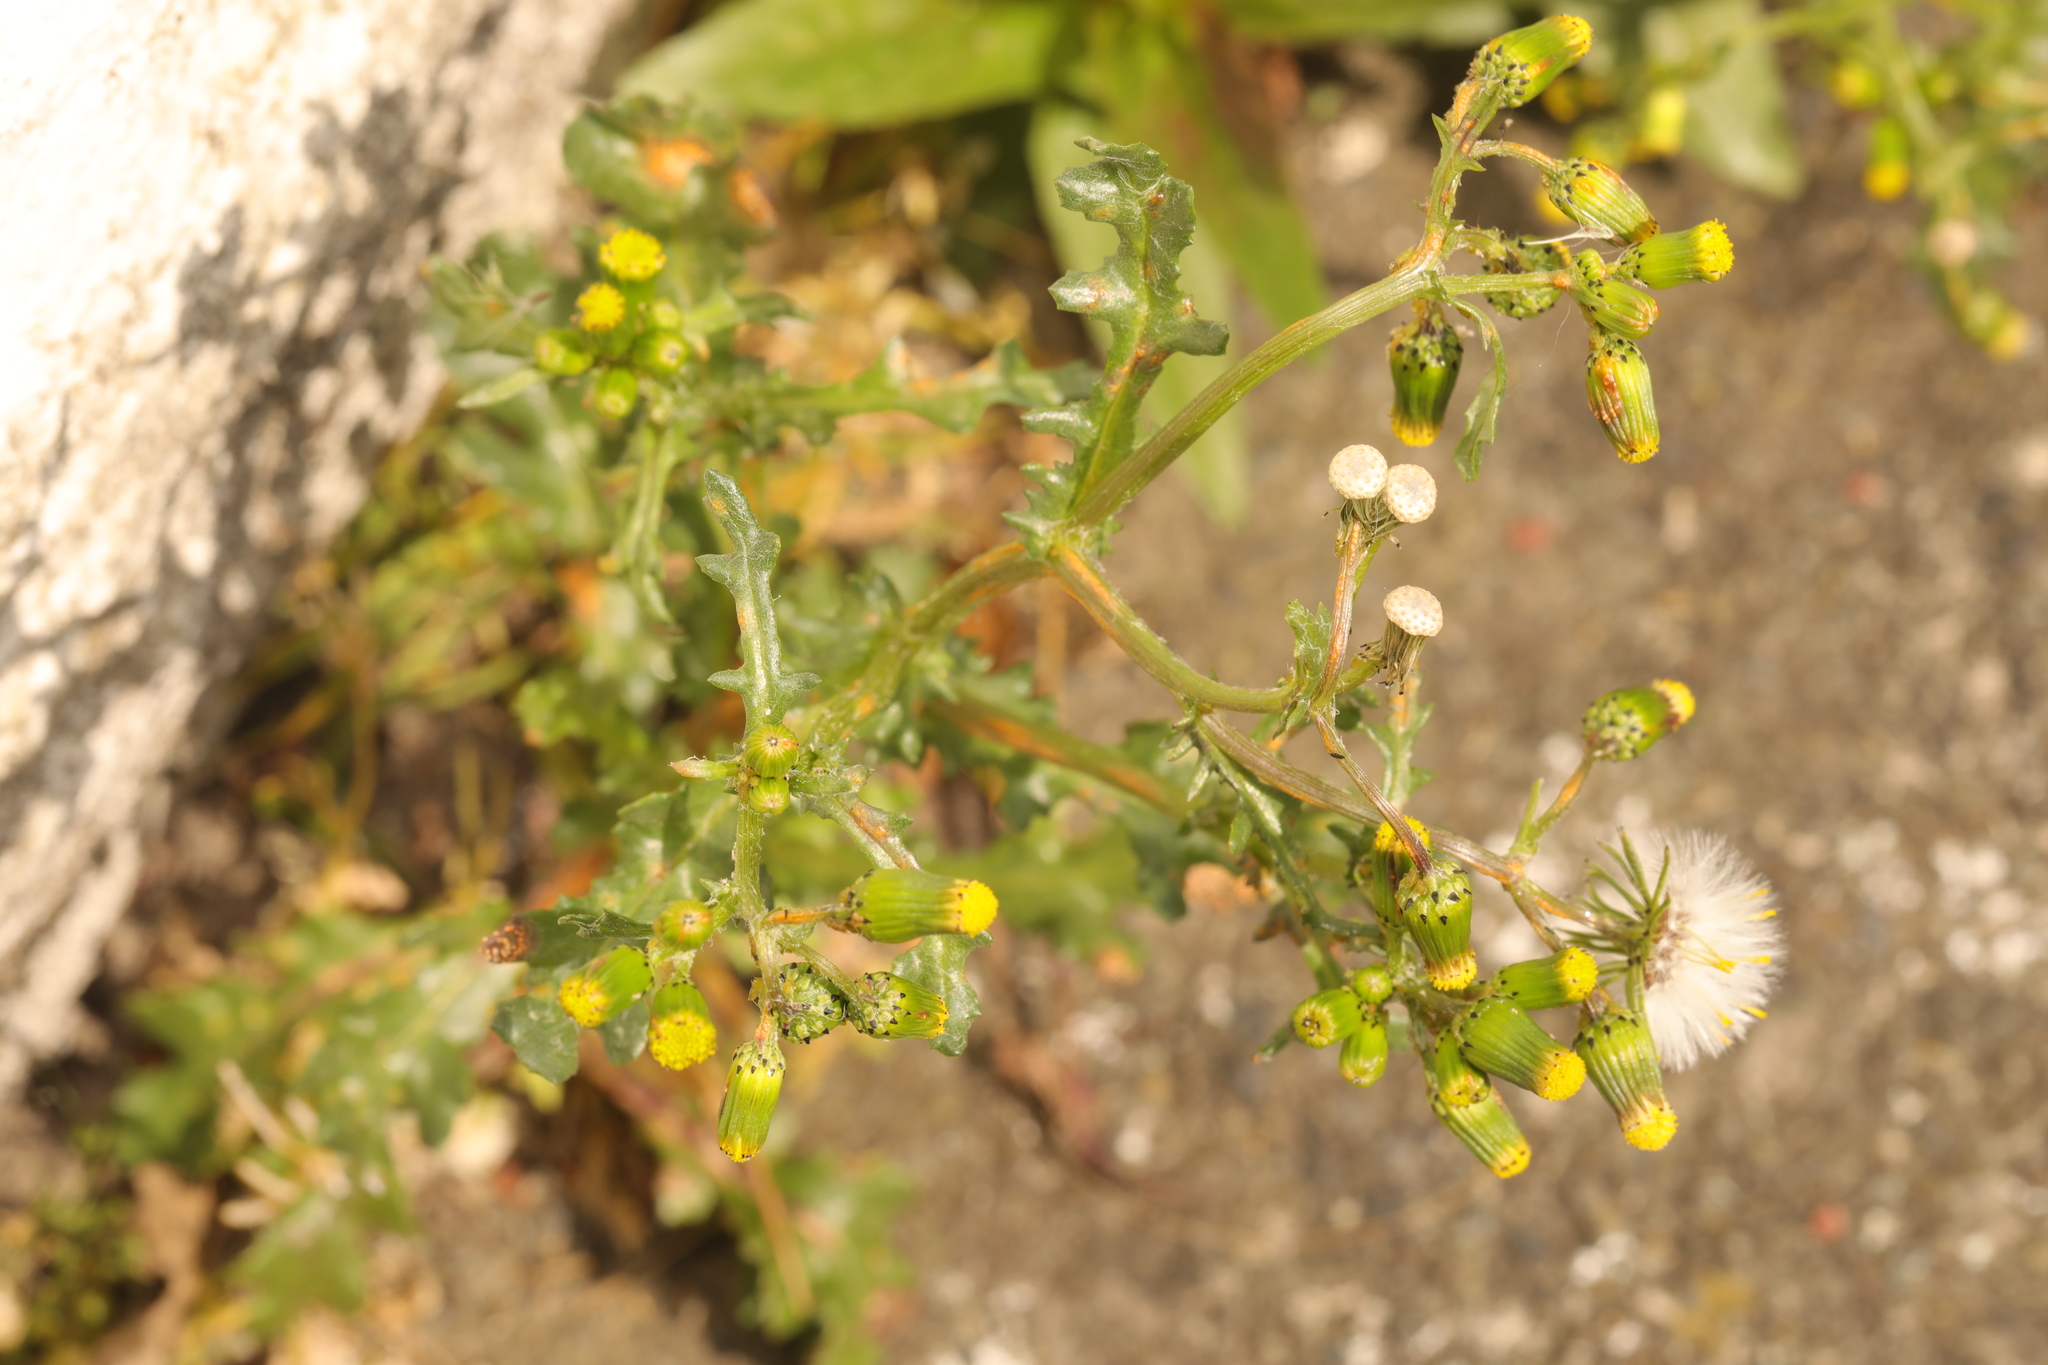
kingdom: Plantae
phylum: Tracheophyta
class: Magnoliopsida
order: Asterales
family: Asteraceae
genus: Senecio
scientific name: Senecio vulgaris
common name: Old-man-in-the-spring
